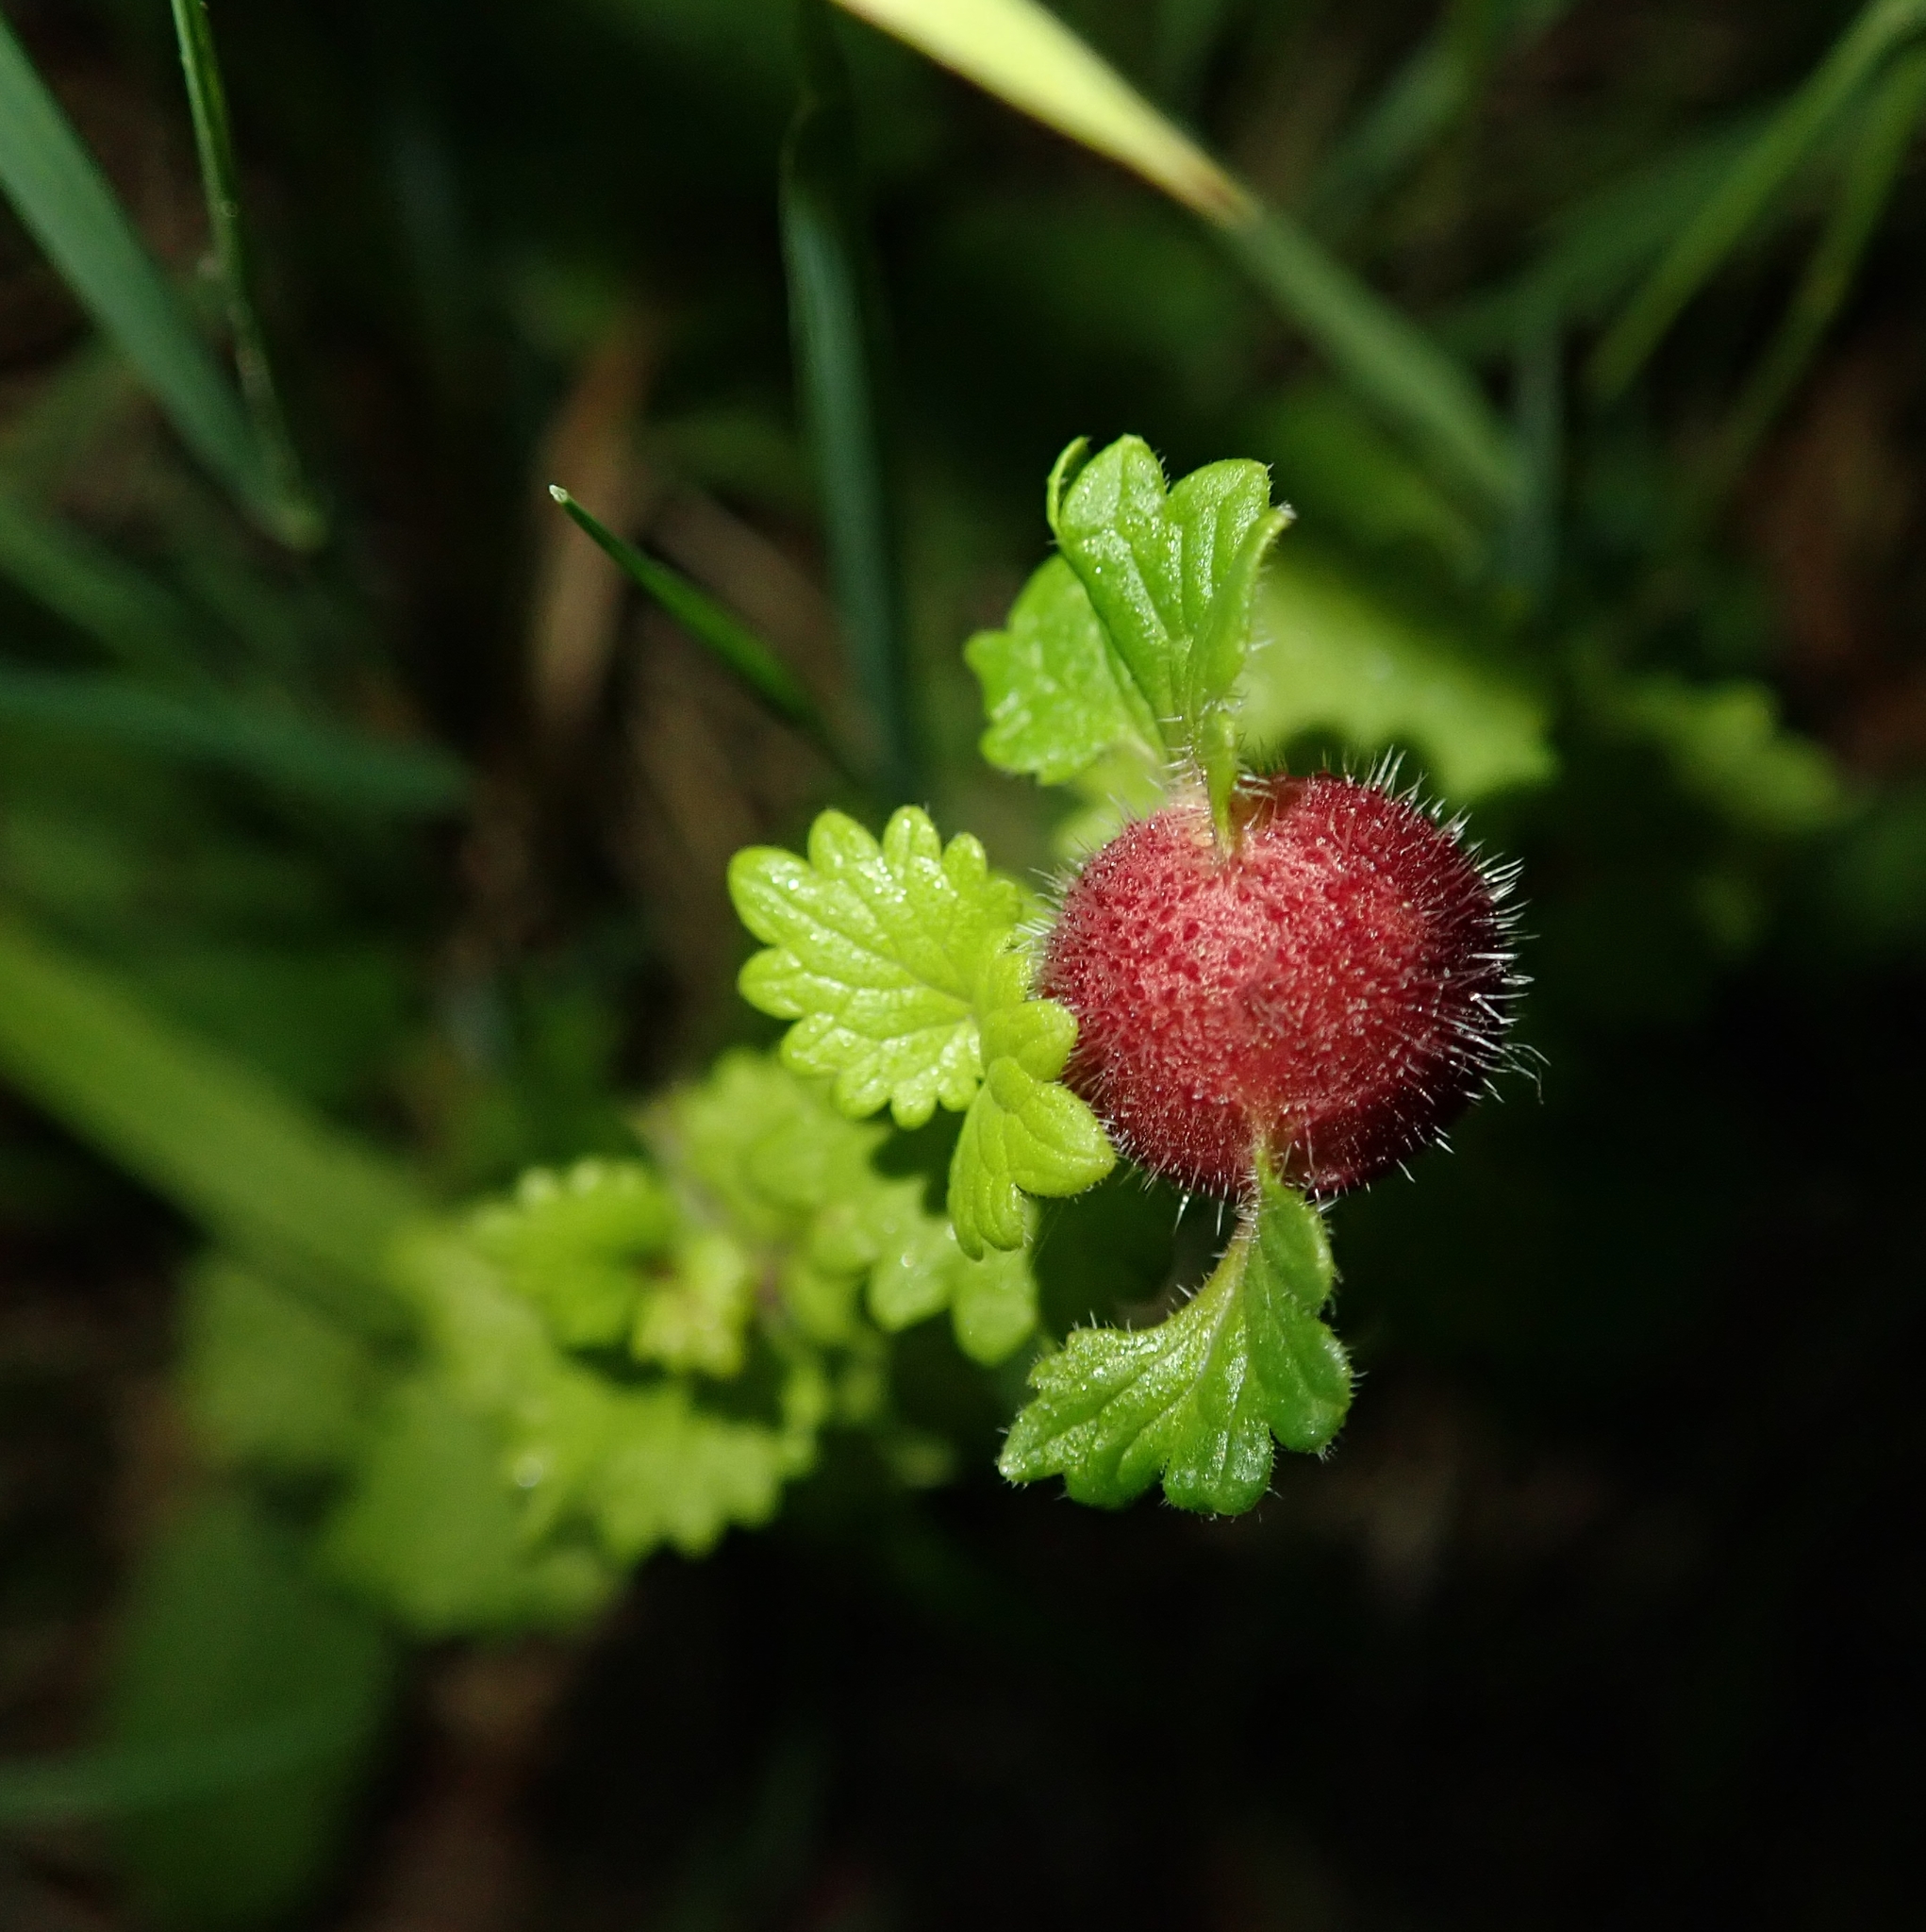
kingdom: Animalia
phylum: Arthropoda
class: Insecta
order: Hymenoptera
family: Cynipidae
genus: Liposthenes
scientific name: Liposthenes glechomae
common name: Gall wasp
